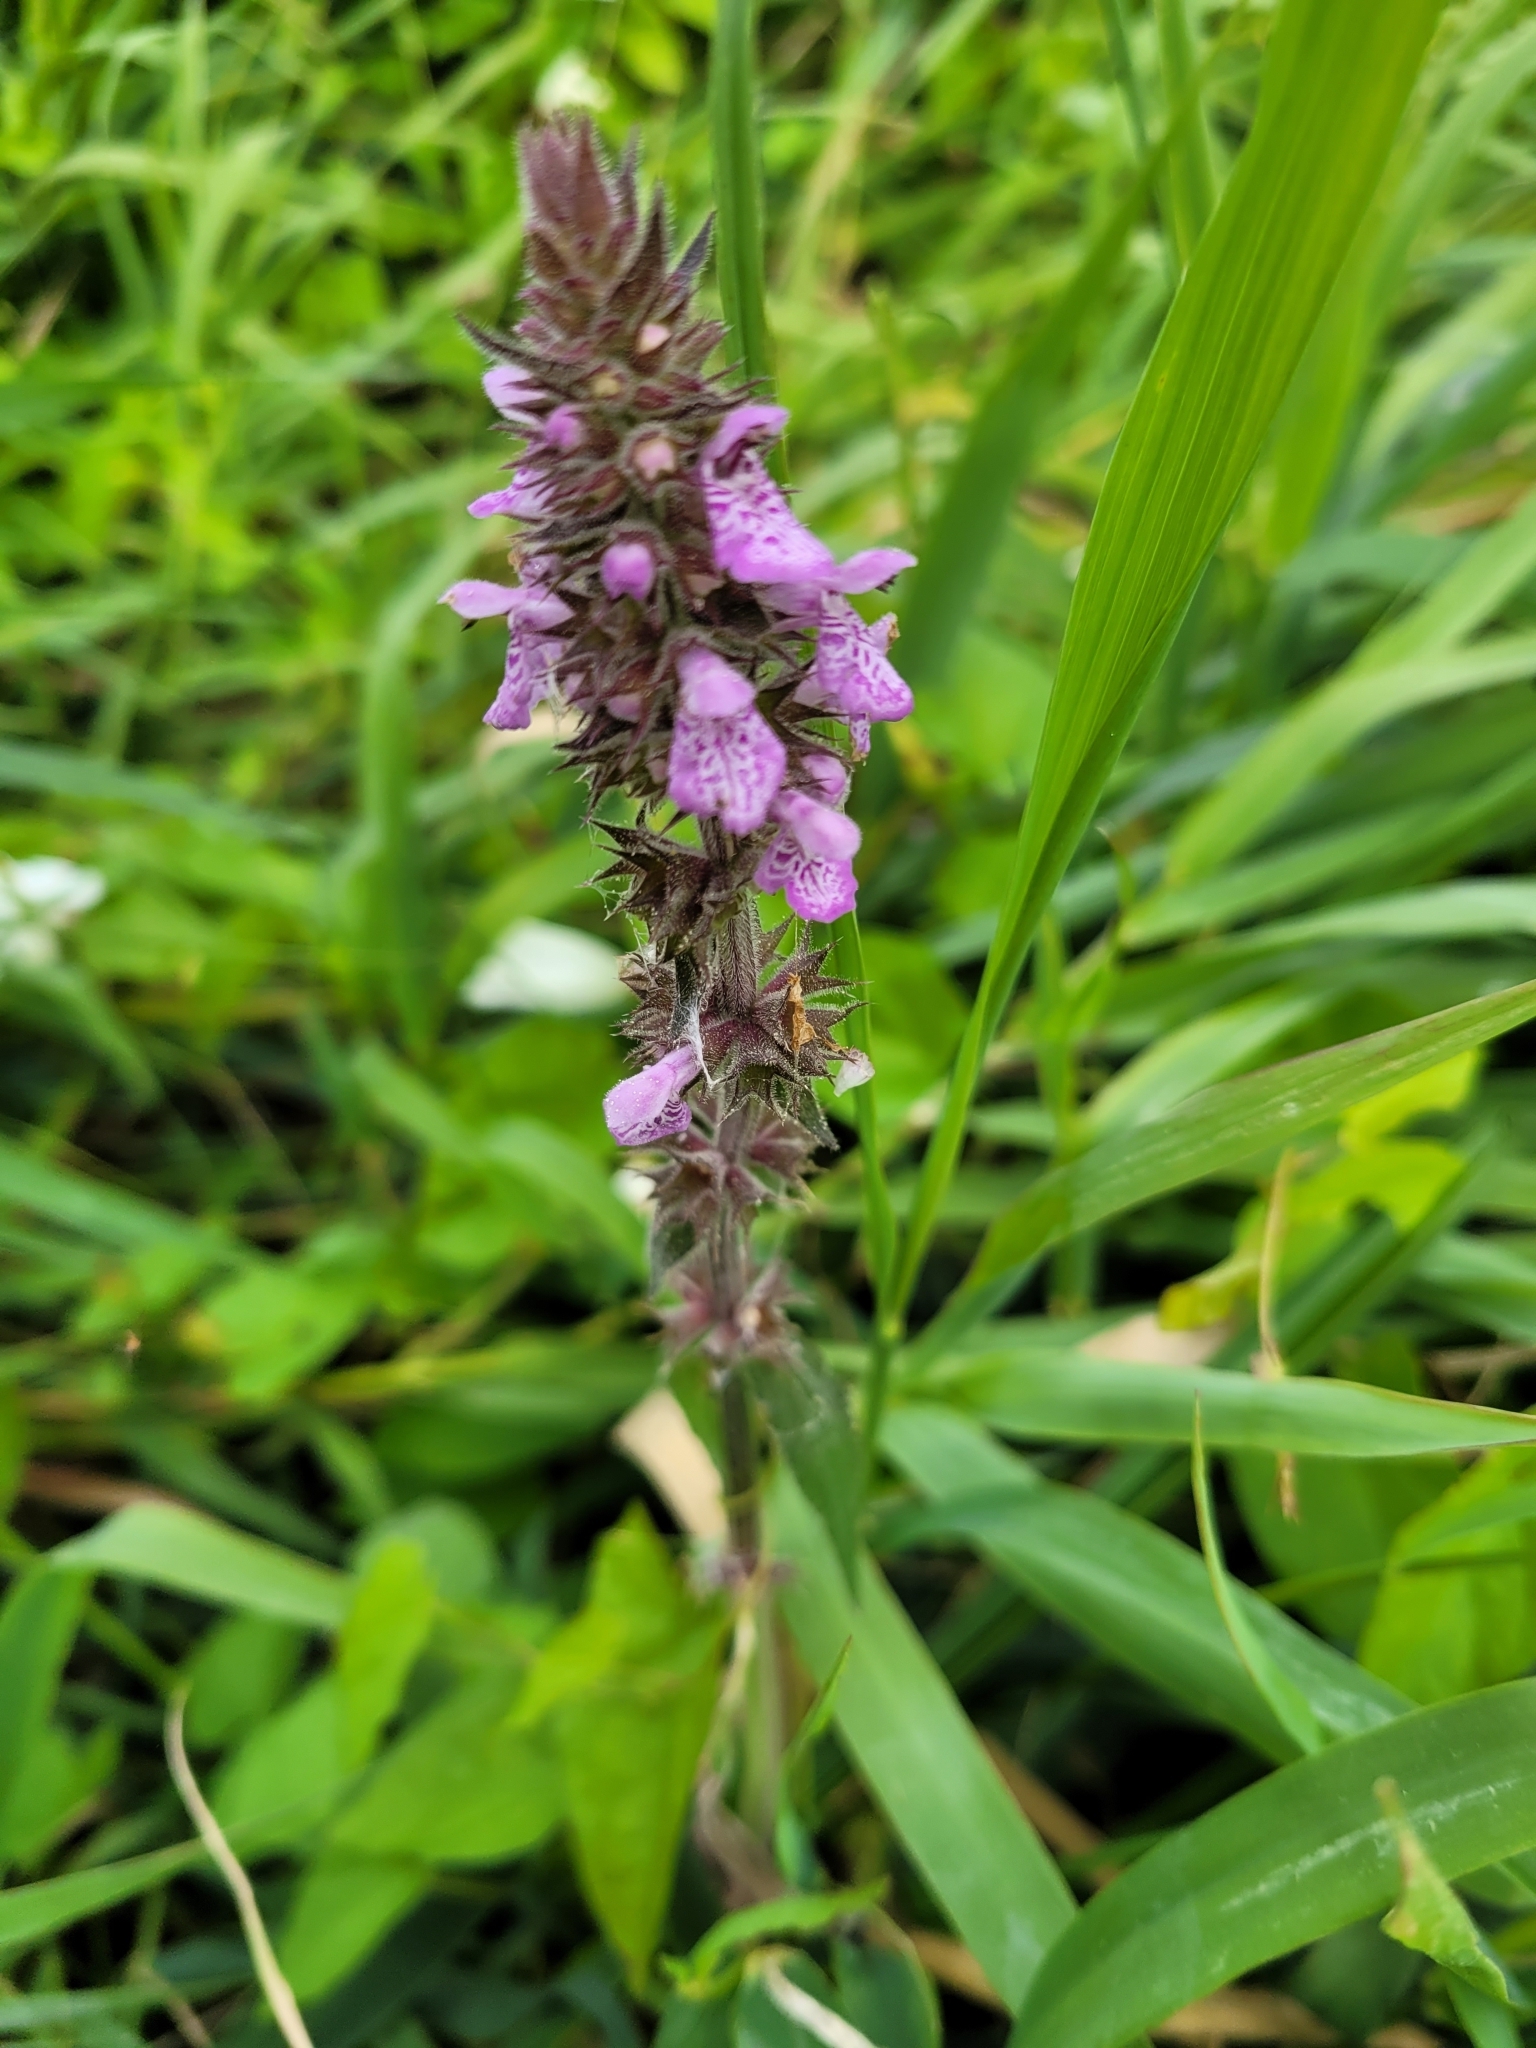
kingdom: Plantae
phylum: Tracheophyta
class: Magnoliopsida
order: Lamiales
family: Lamiaceae
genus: Stachys
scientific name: Stachys palustris
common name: Marsh woundwort
